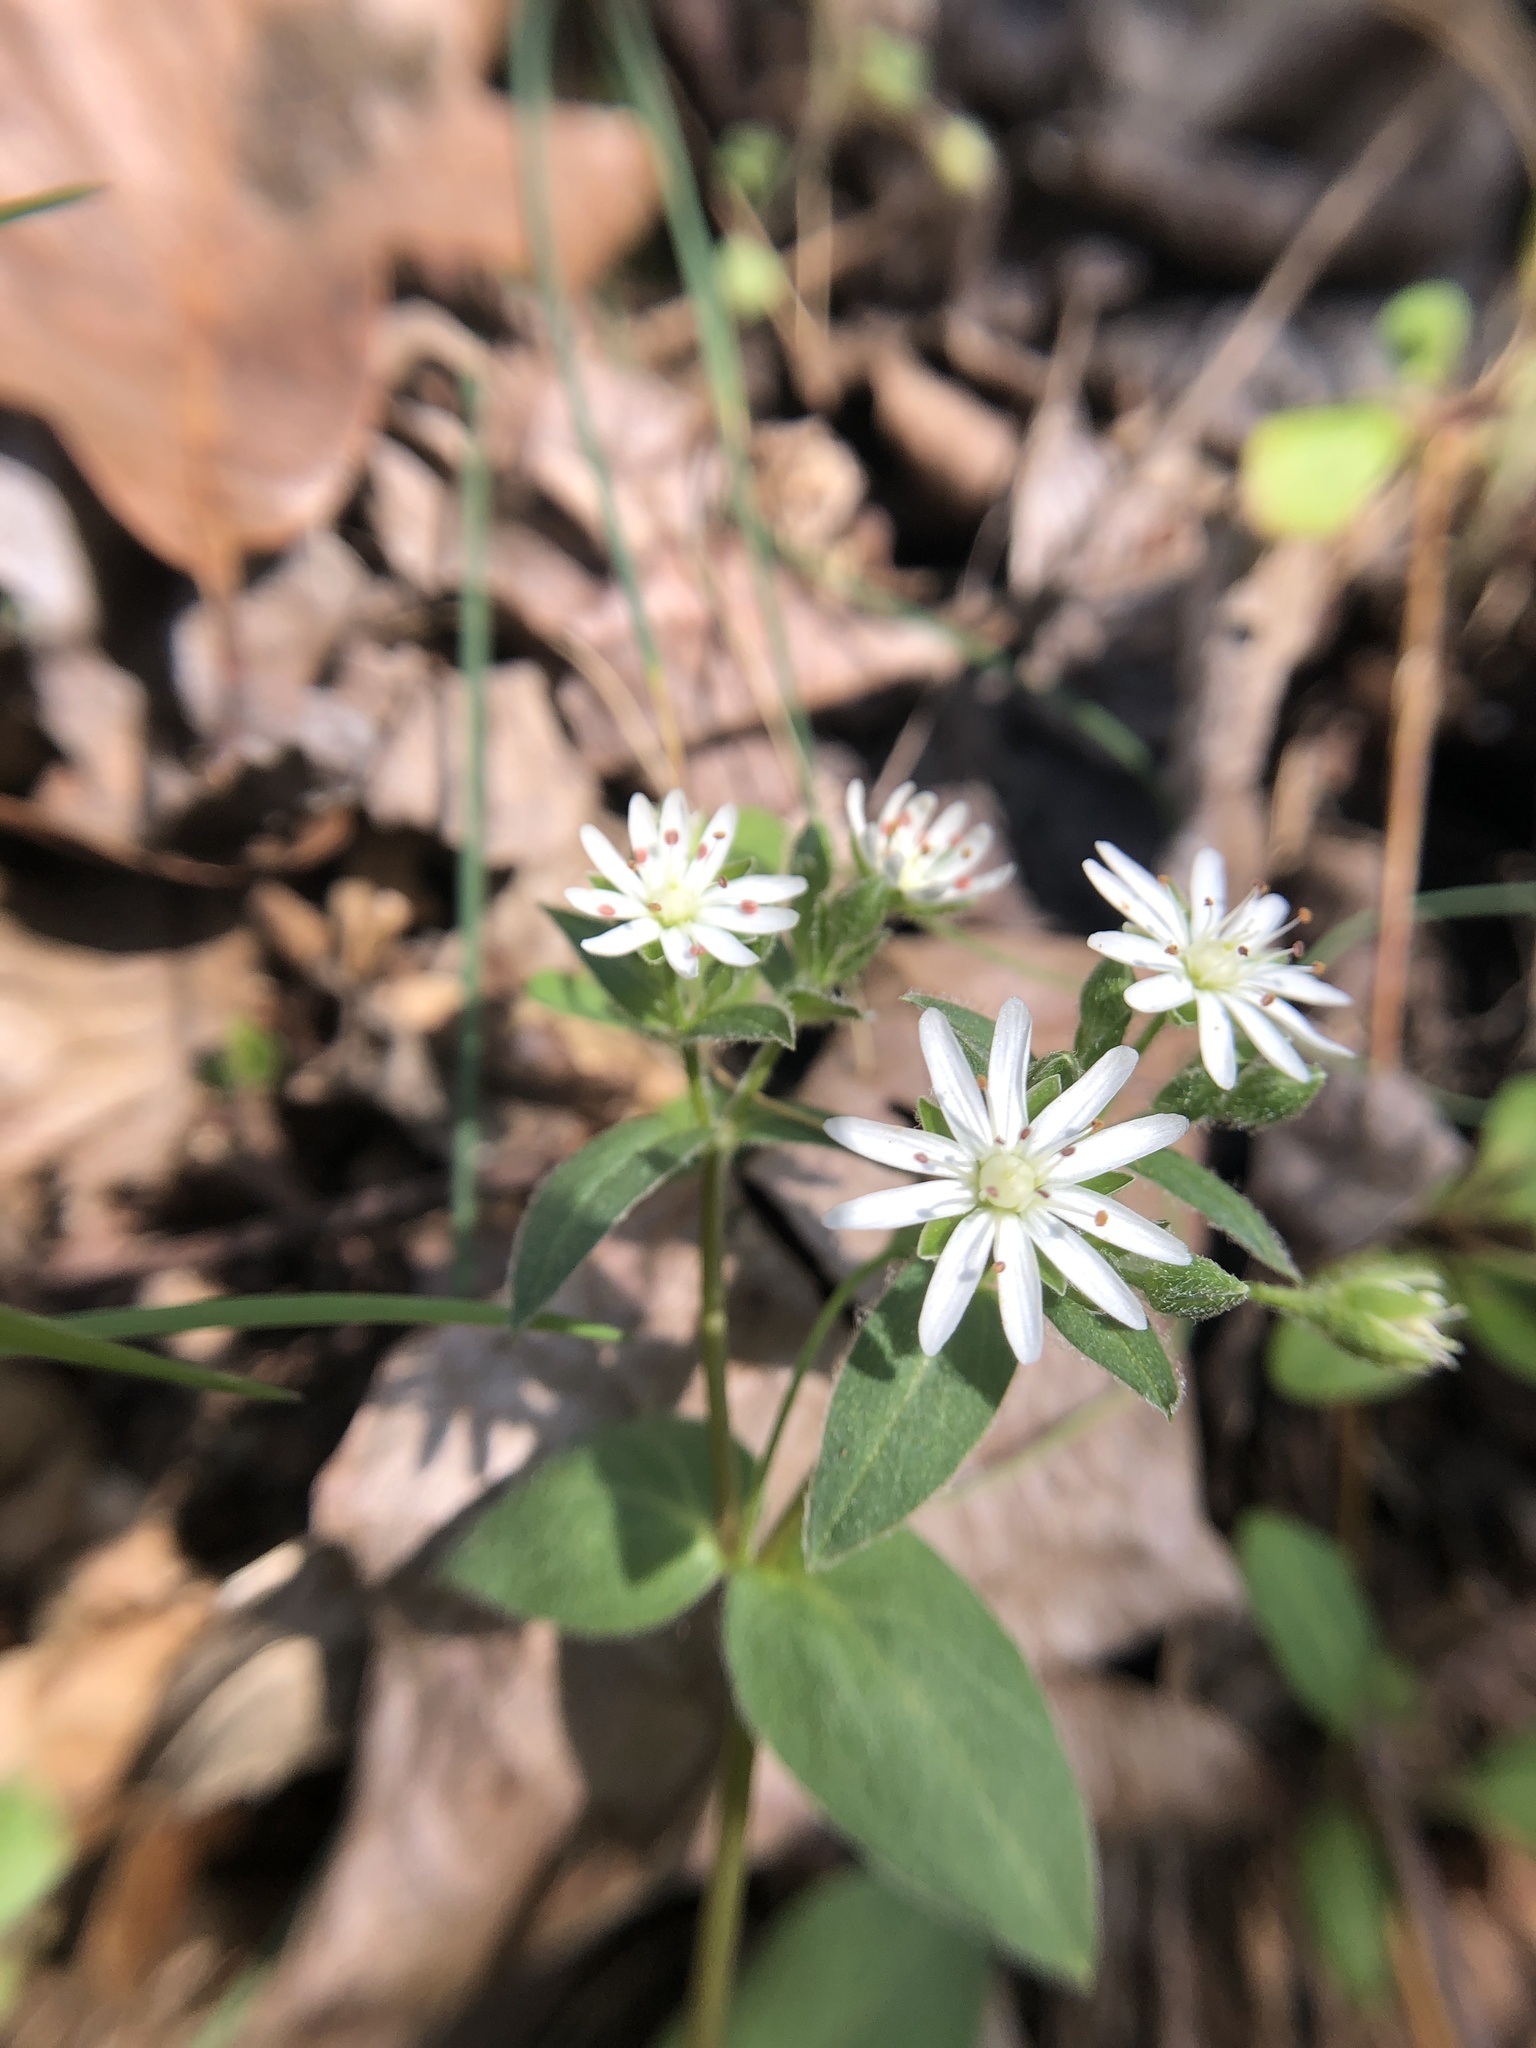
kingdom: Plantae
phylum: Tracheophyta
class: Magnoliopsida
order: Caryophyllales
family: Caryophyllaceae
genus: Stellaria
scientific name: Stellaria pubera
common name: Star chickweed
